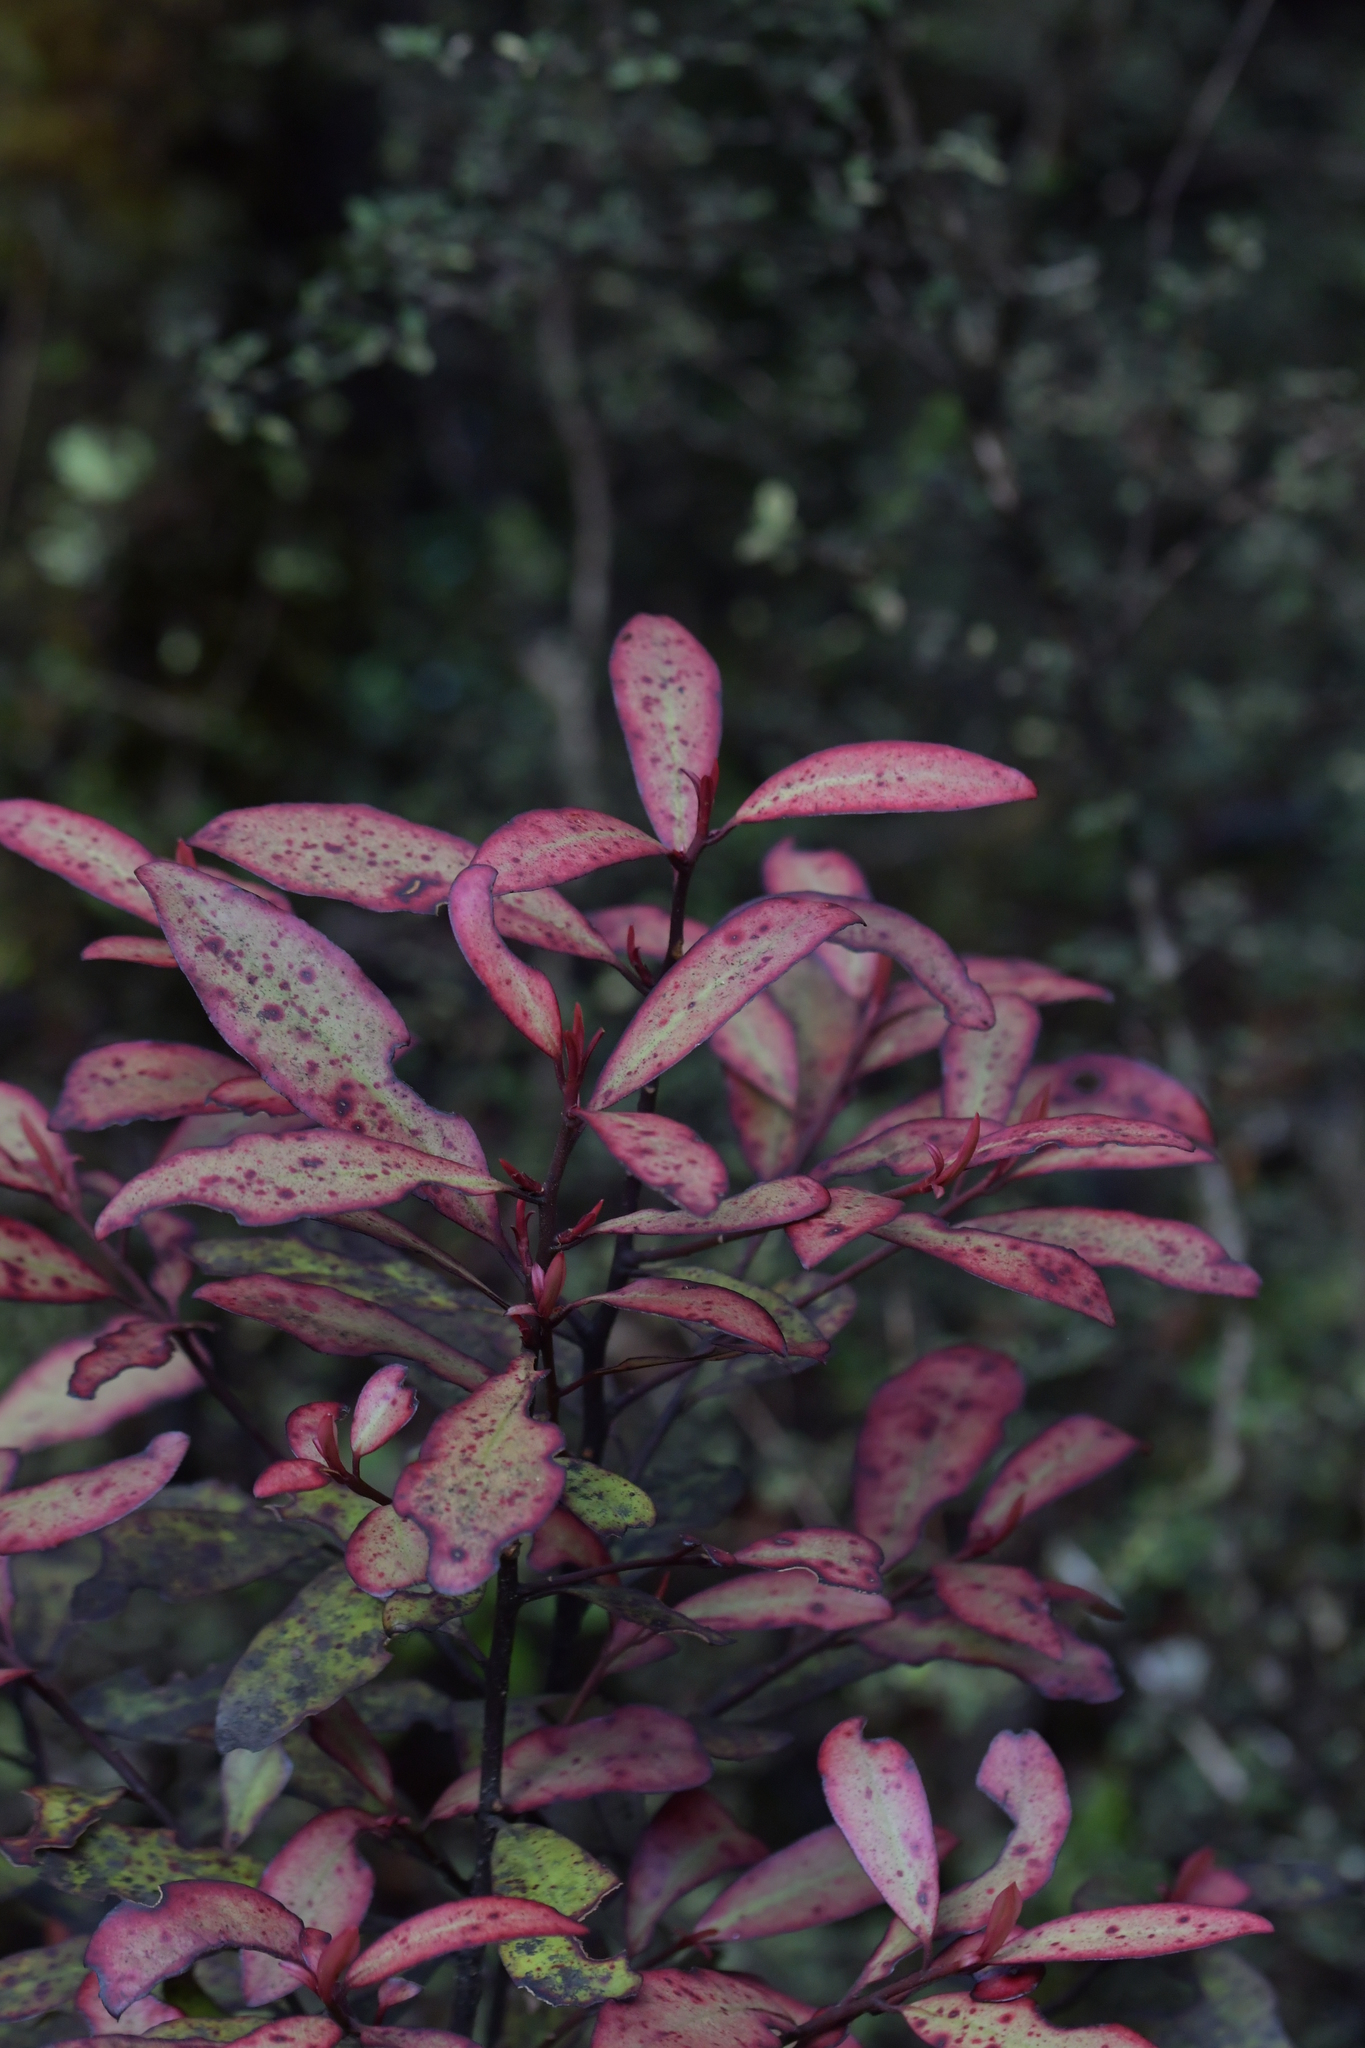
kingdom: Plantae
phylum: Tracheophyta
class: Magnoliopsida
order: Canellales
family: Winteraceae
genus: Pseudowintera
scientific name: Pseudowintera colorata
